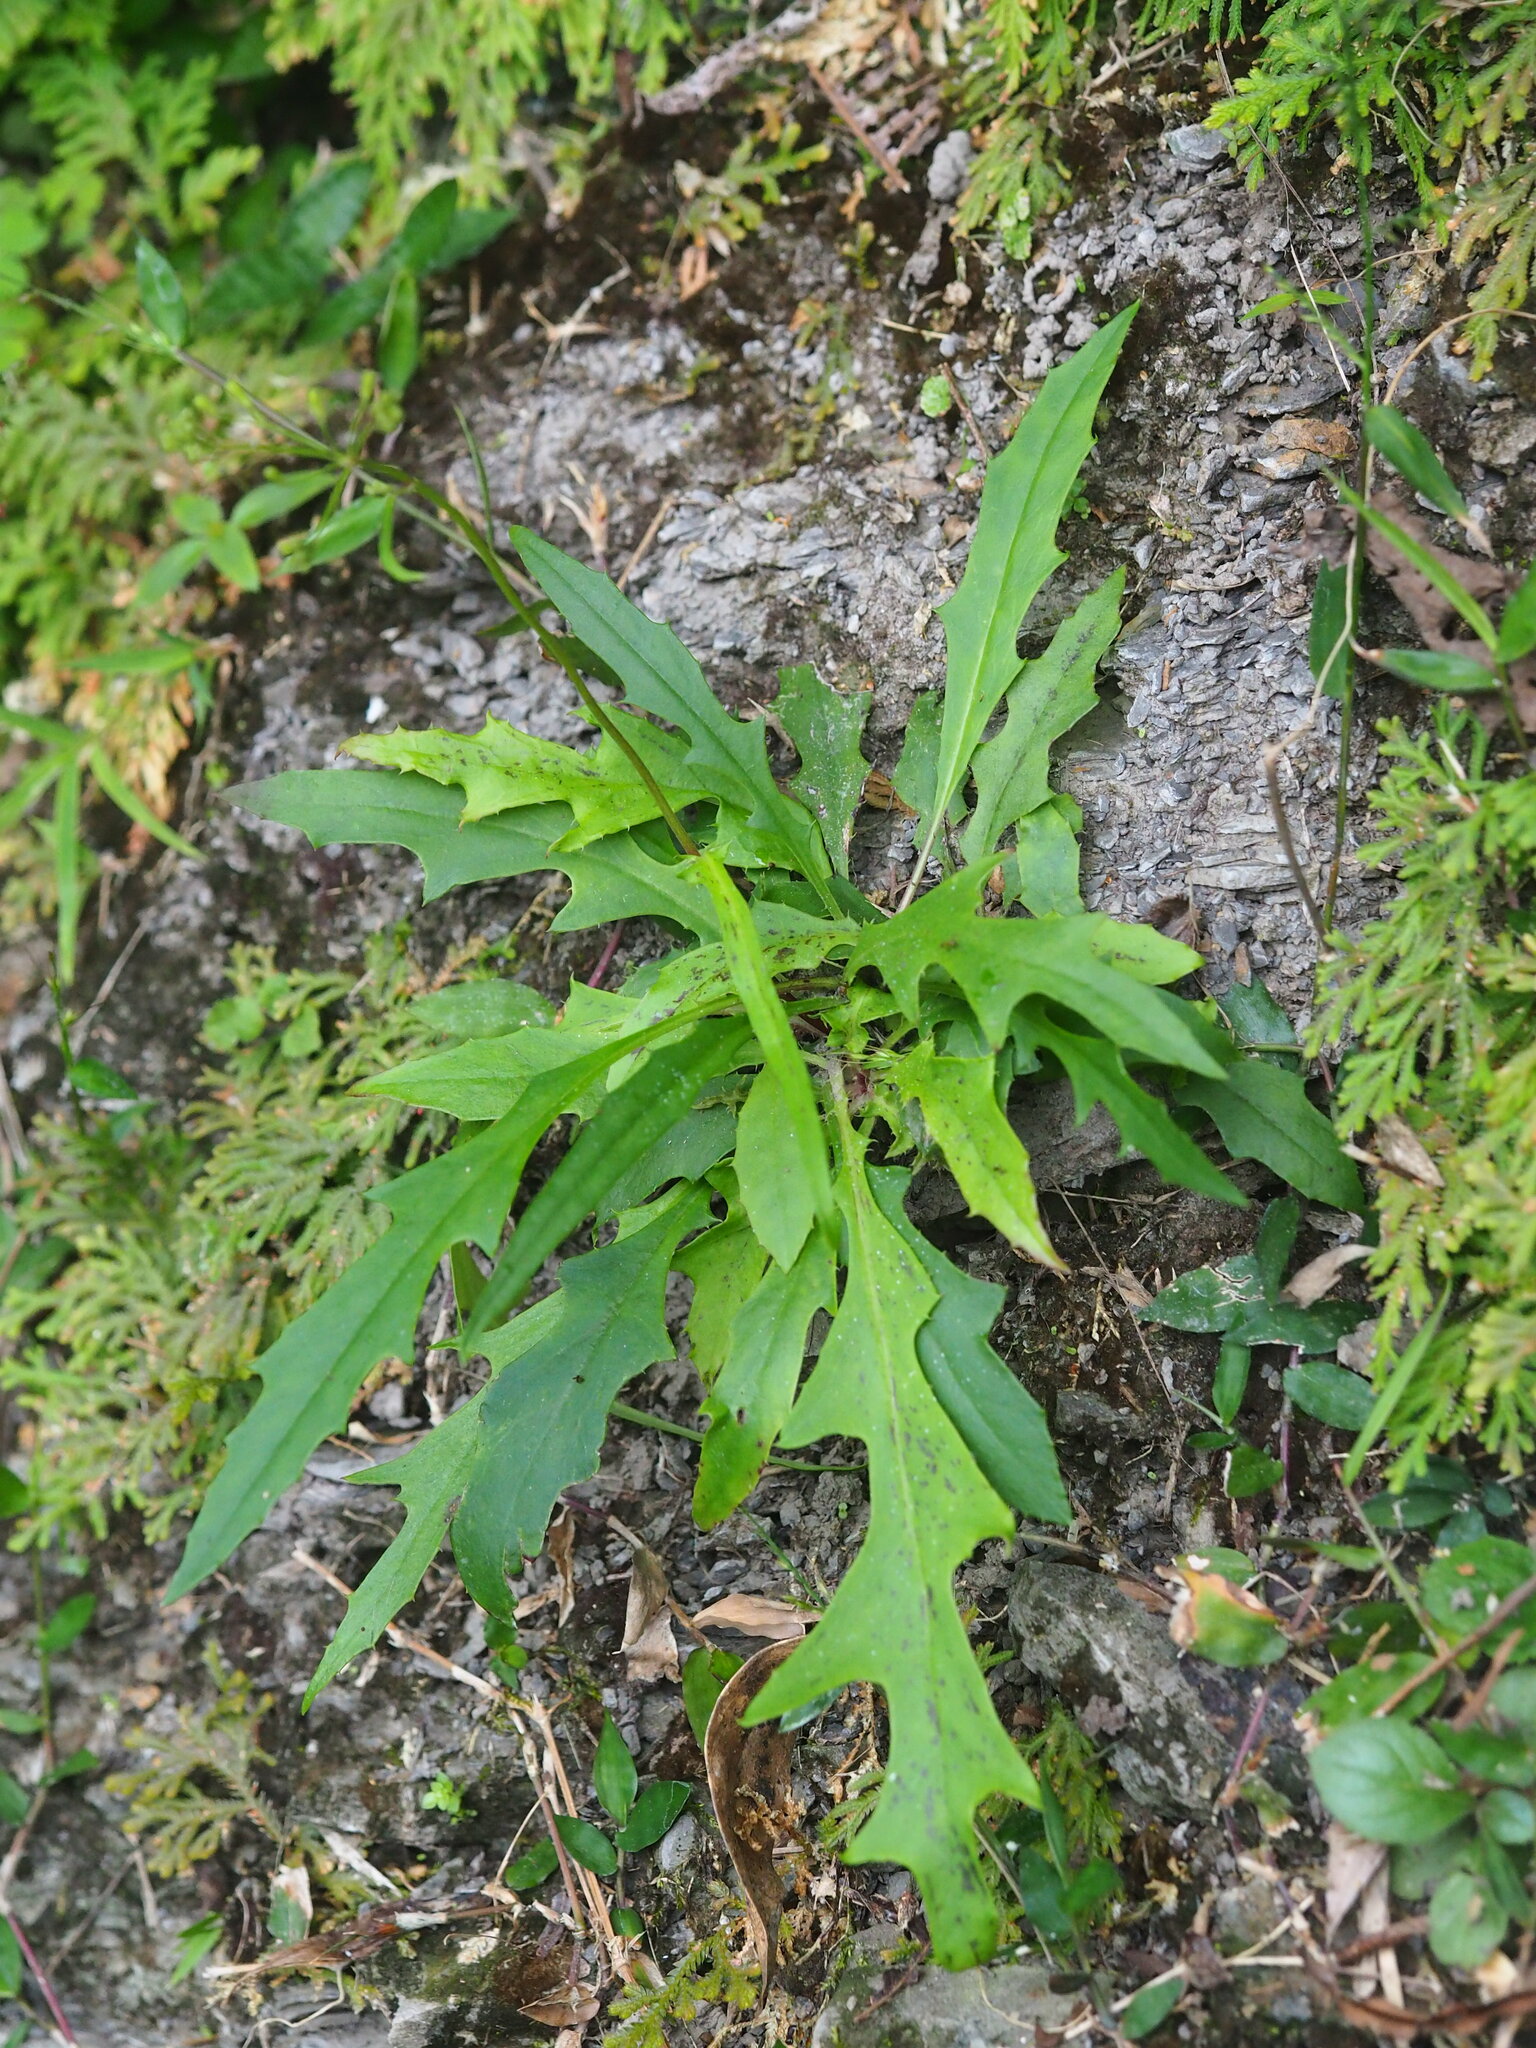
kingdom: Plantae
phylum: Tracheophyta
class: Magnoliopsida
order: Asterales
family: Asteraceae
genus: Ixeridium
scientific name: Ixeridium laevigatum
